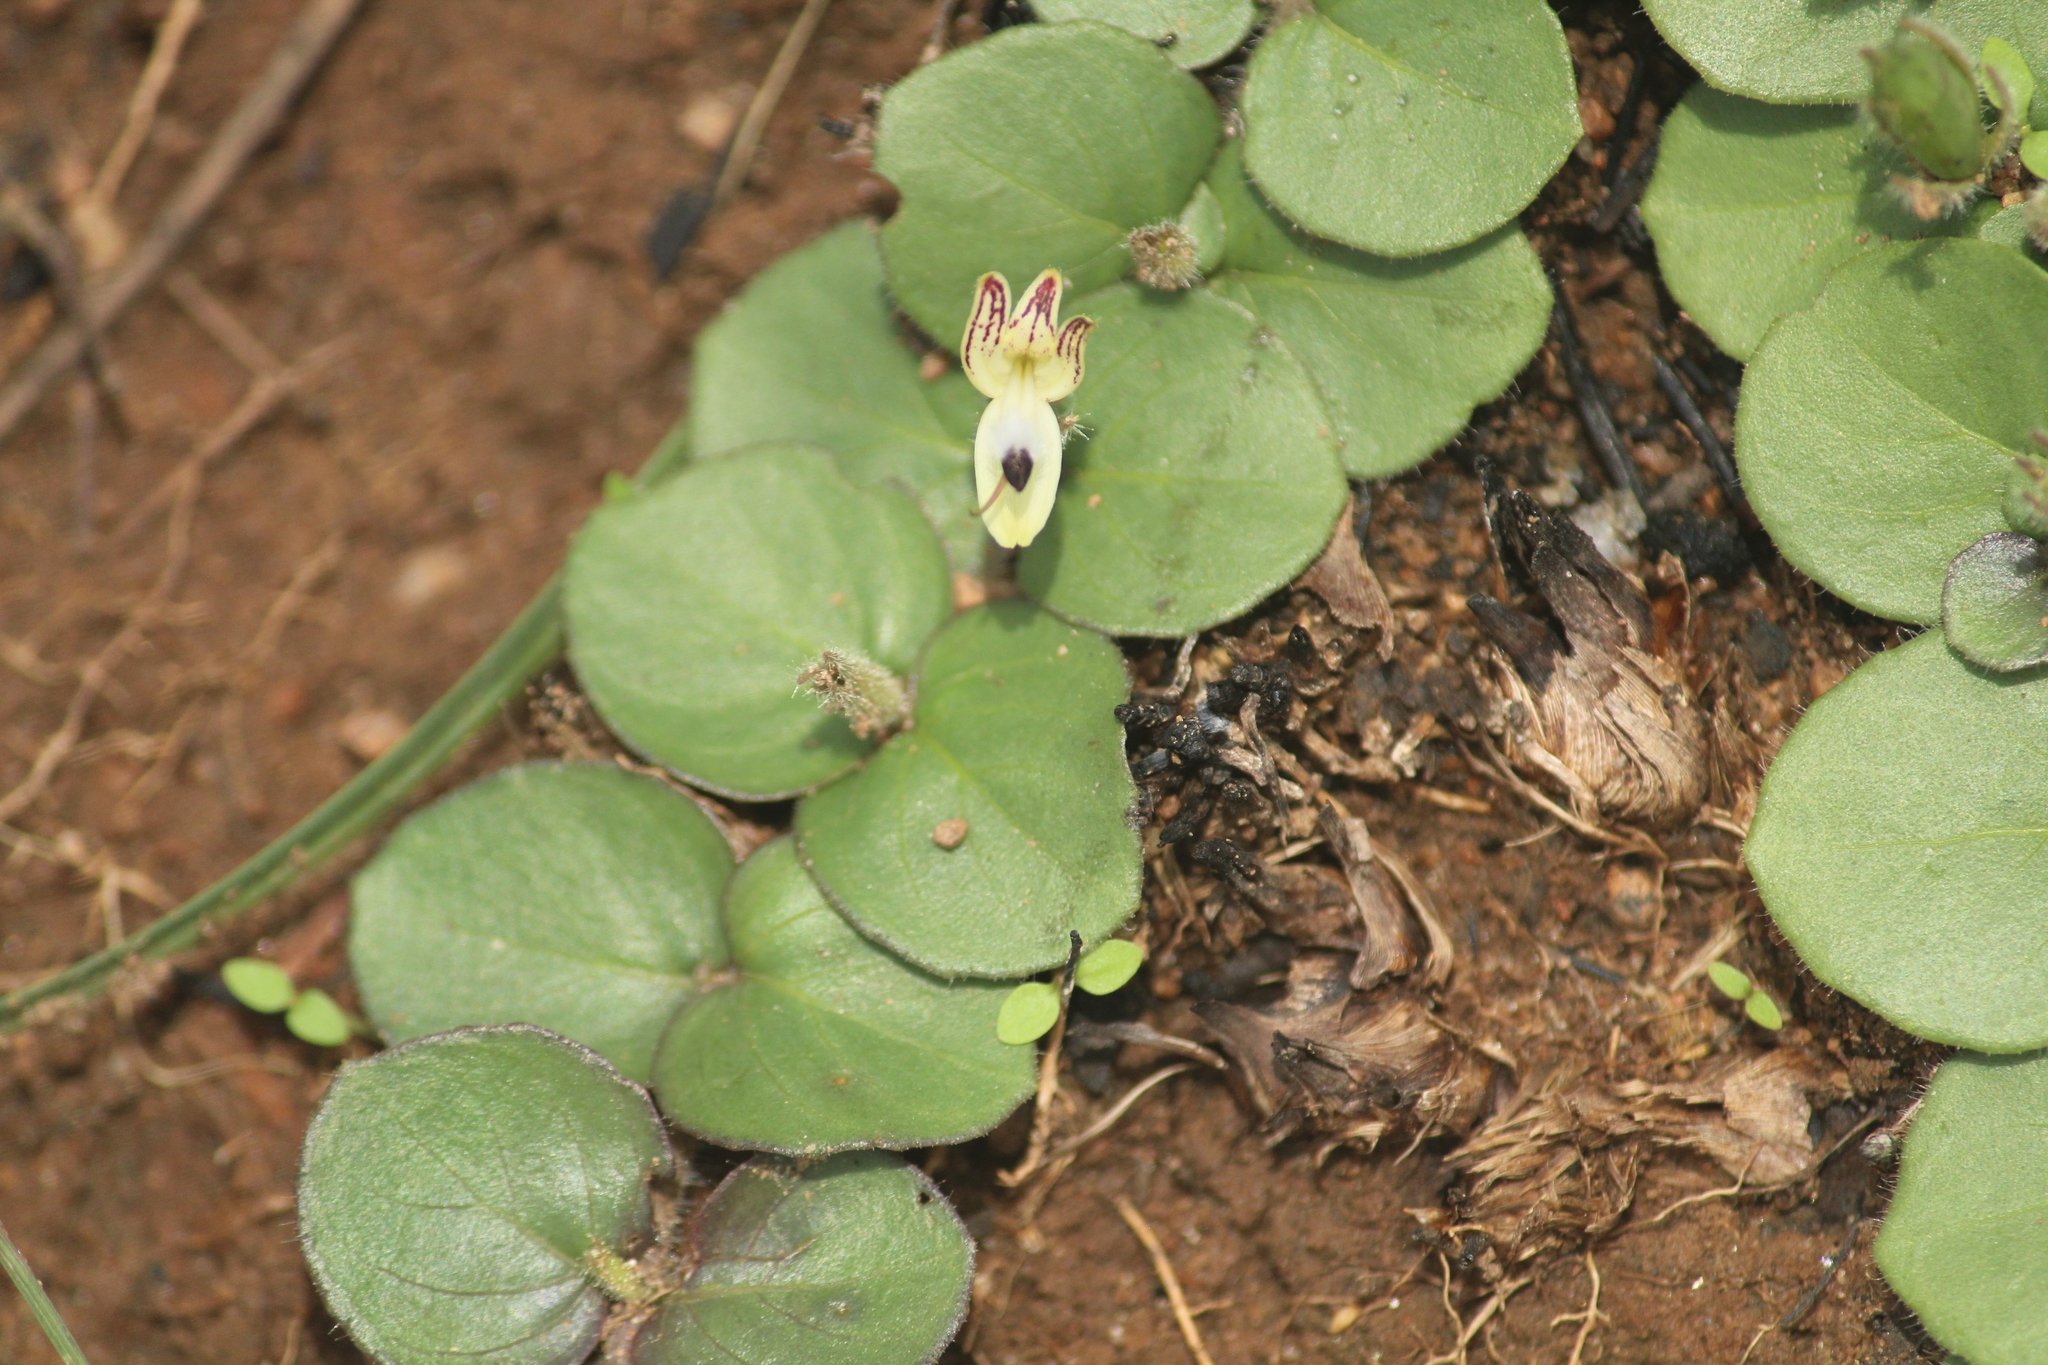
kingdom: Plantae
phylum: Tracheophyta
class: Magnoliopsida
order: Lamiales
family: Acanthaceae
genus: Andrographis
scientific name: Andrographis serpyllifolia
